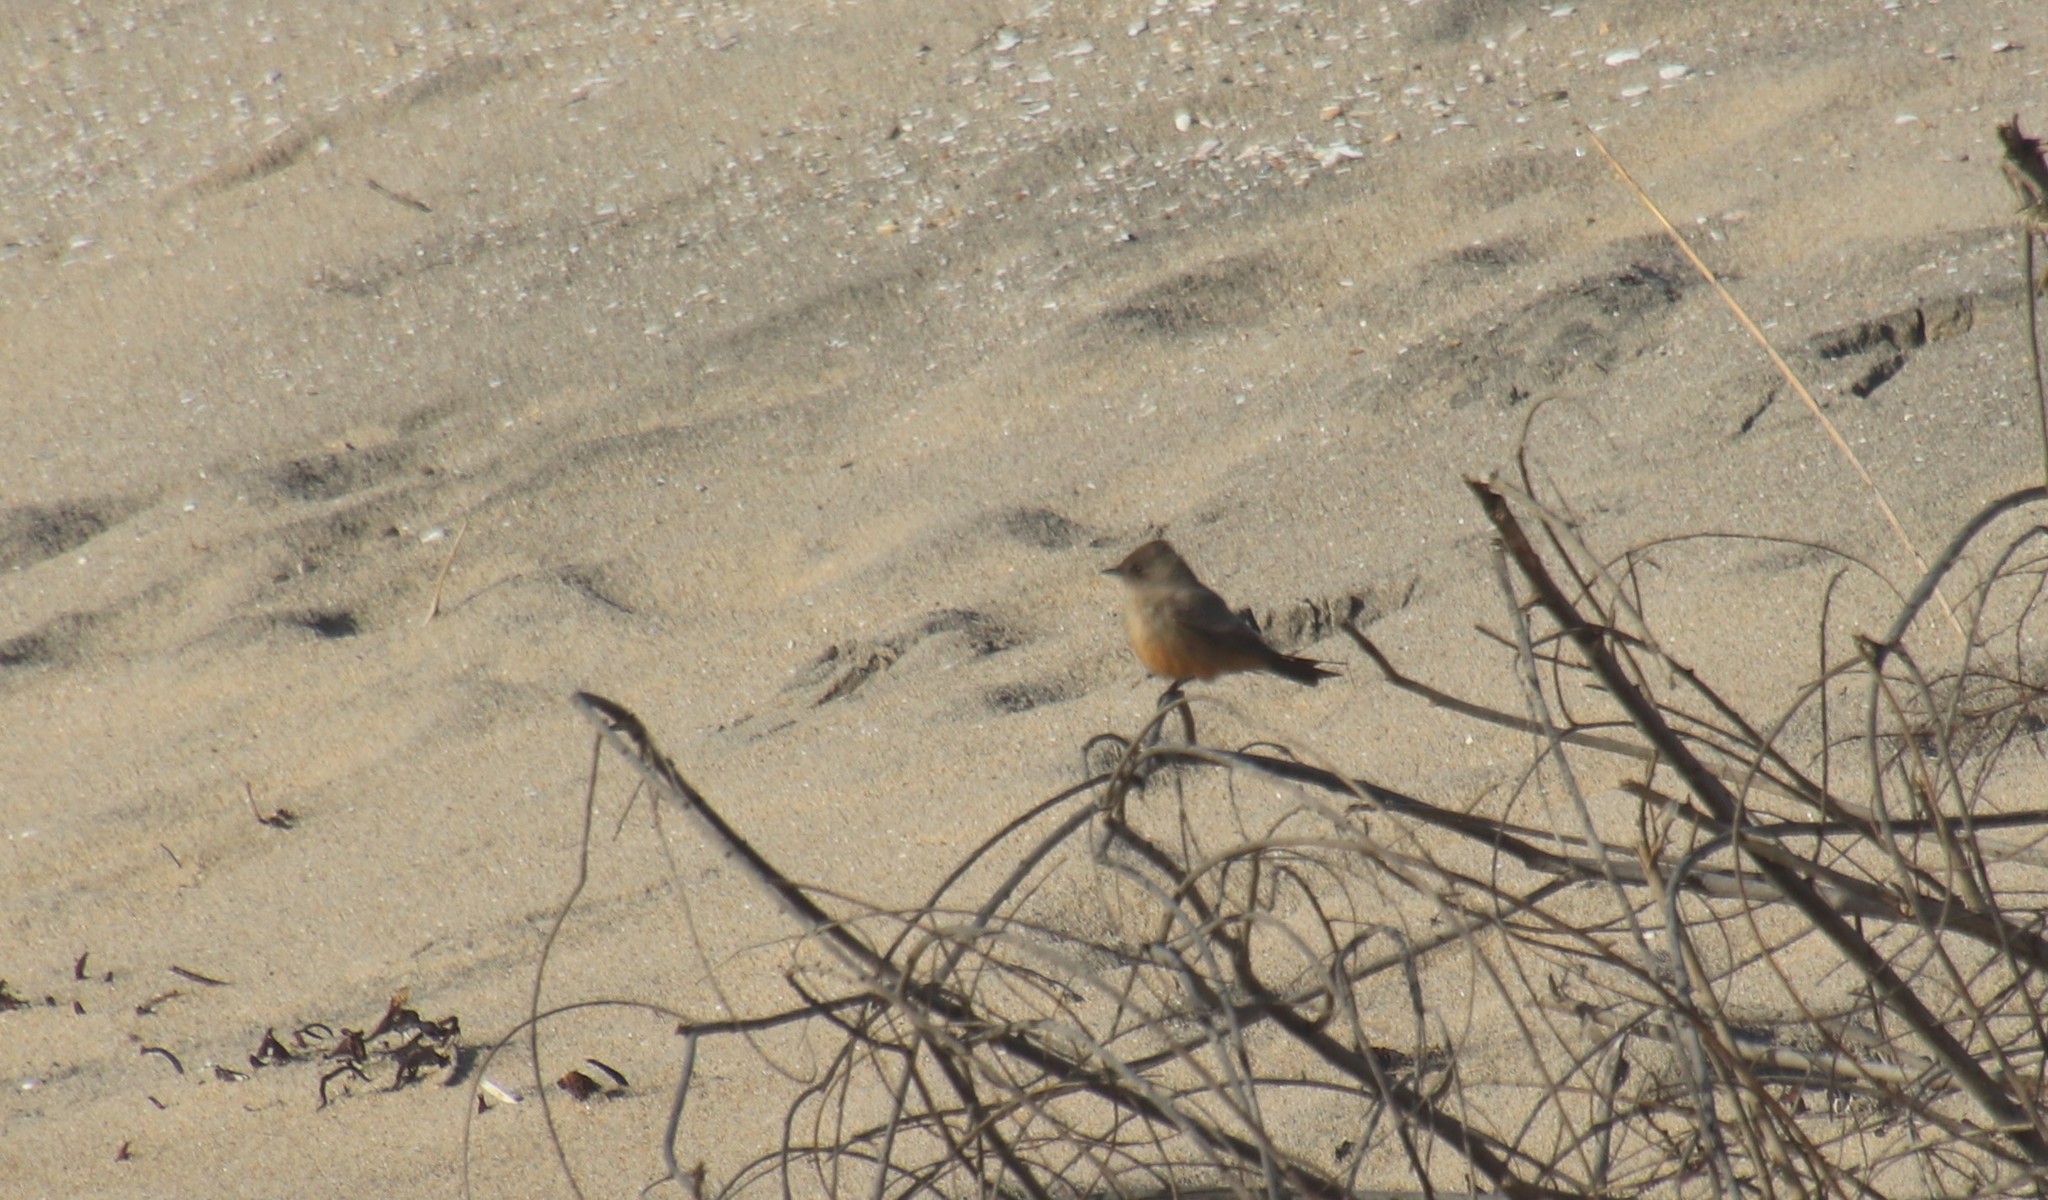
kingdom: Animalia
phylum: Chordata
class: Aves
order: Passeriformes
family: Tyrannidae
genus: Sayornis
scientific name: Sayornis saya
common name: Say's phoebe
